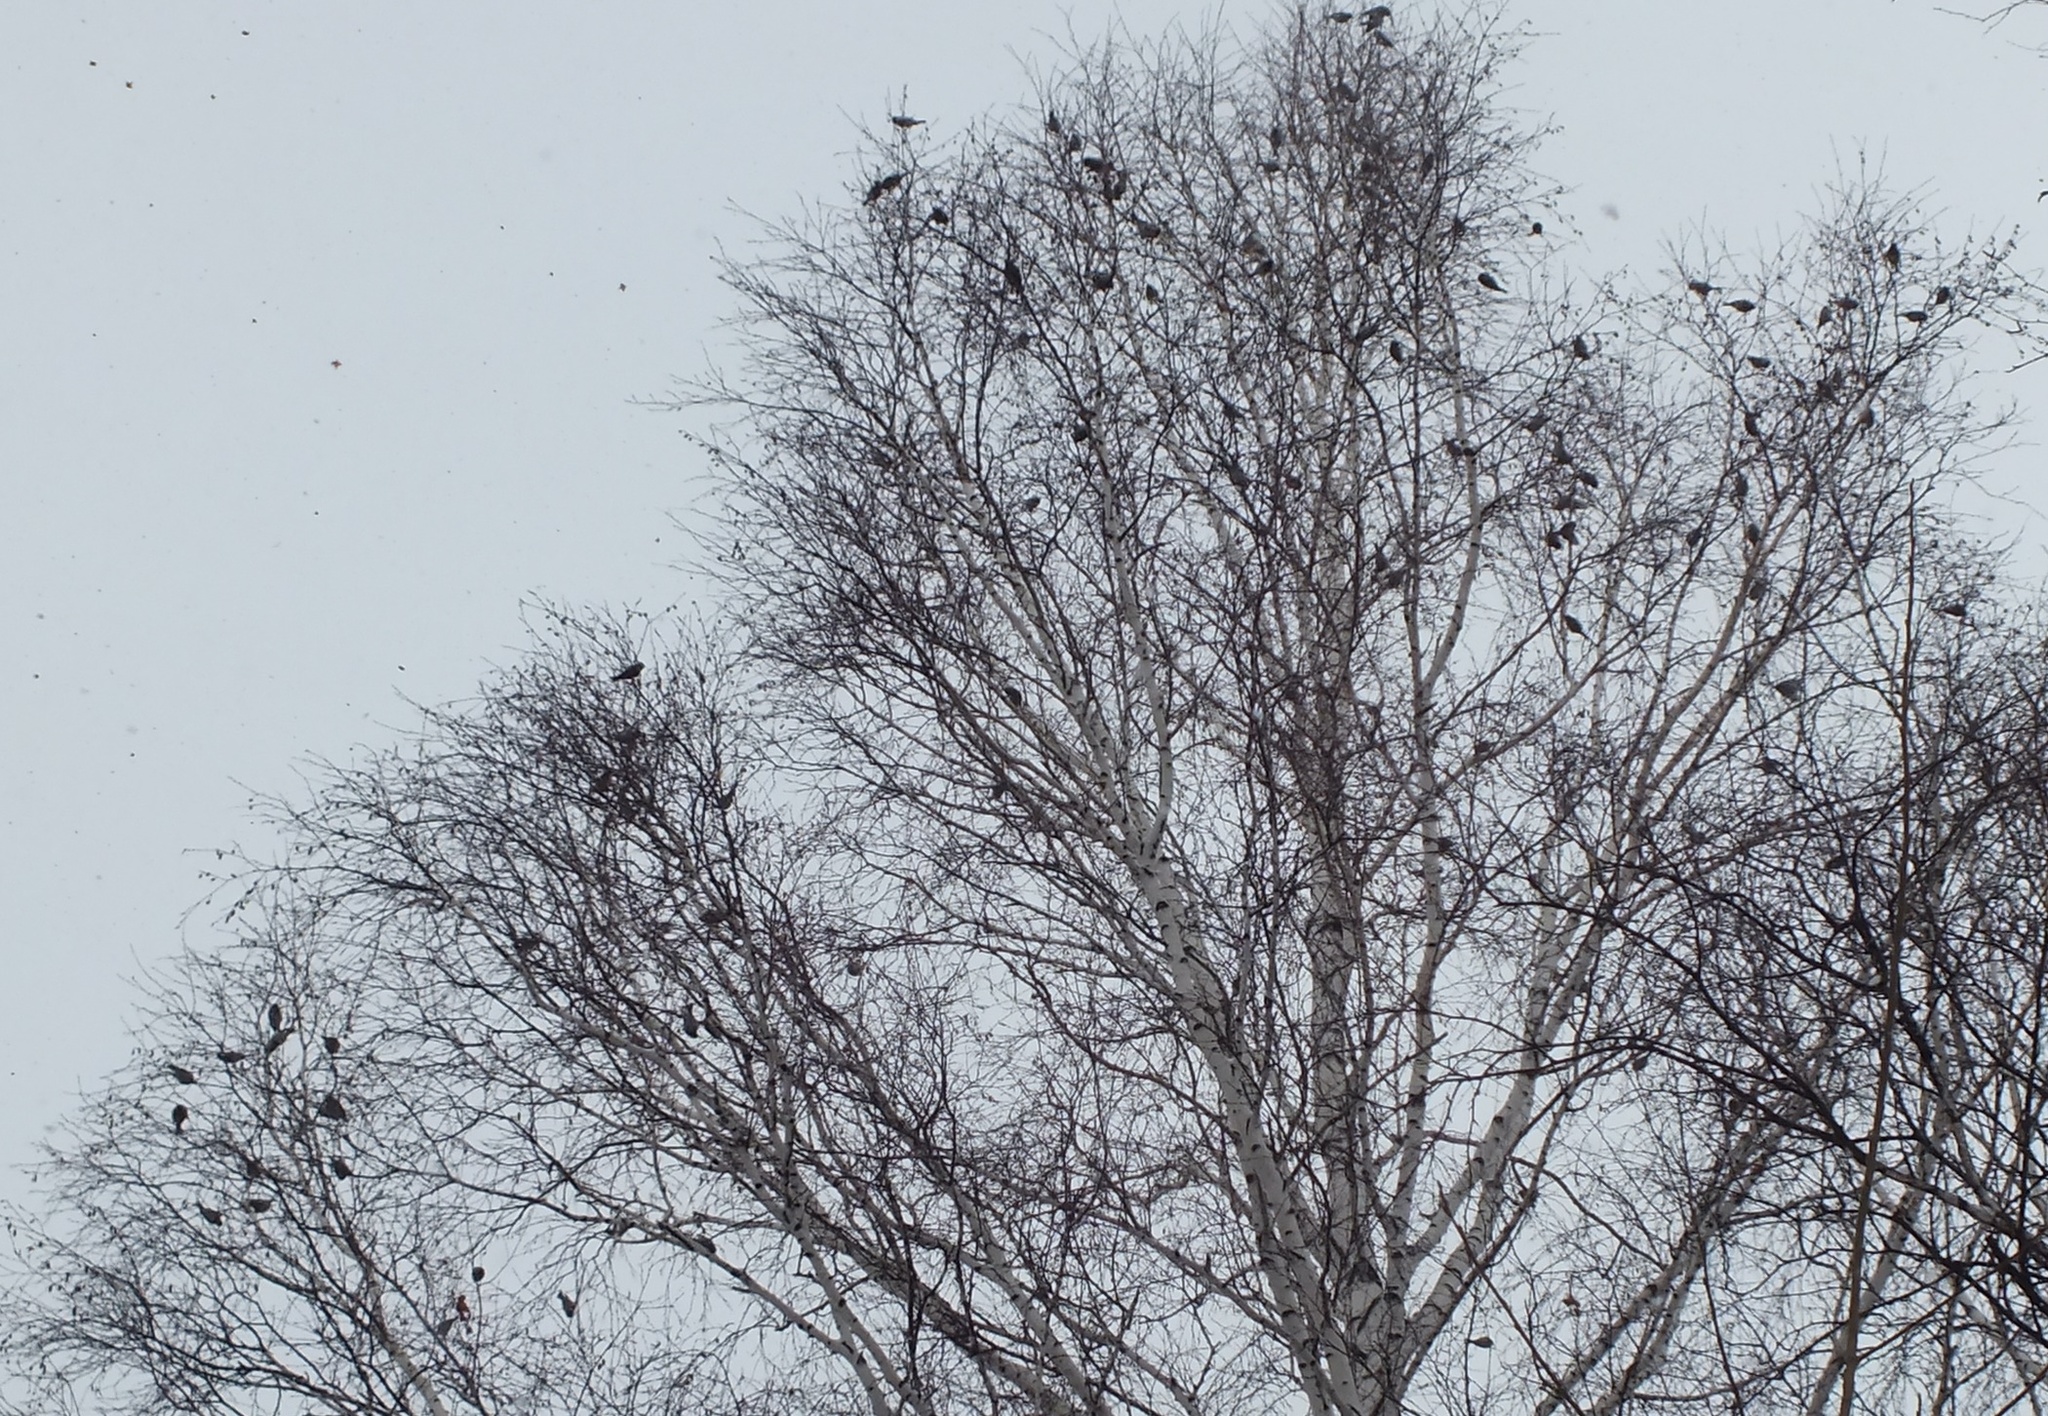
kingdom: Animalia
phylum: Chordata
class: Aves
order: Passeriformes
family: Fringillidae
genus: Acanthis
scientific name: Acanthis flammea
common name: Common redpoll
